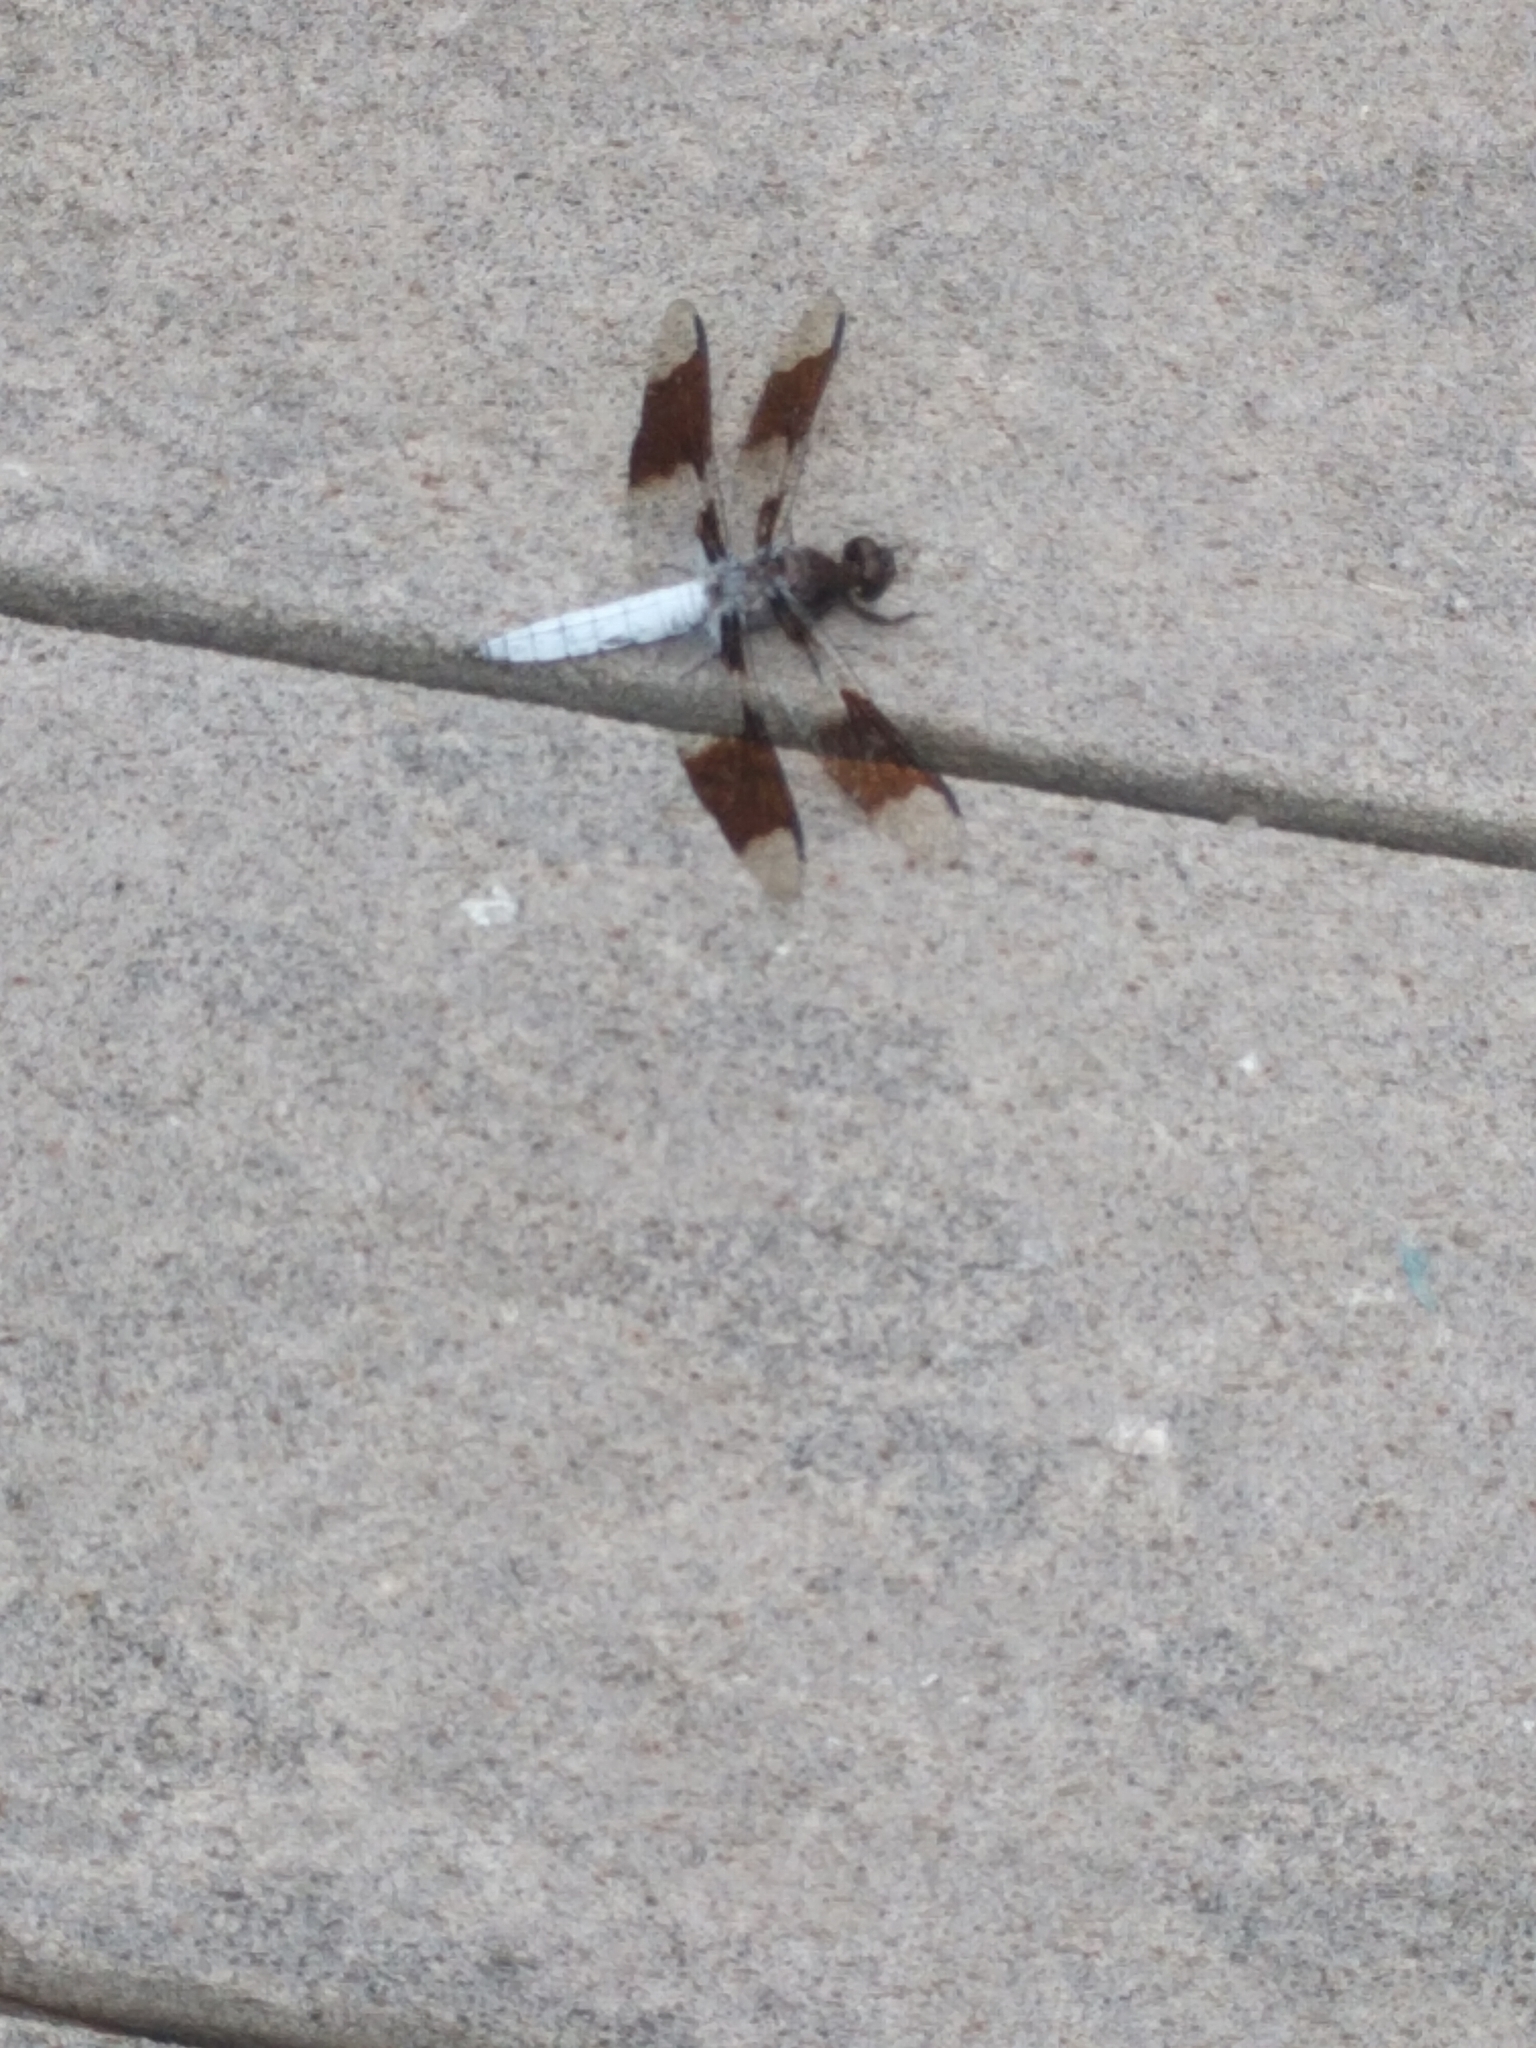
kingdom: Animalia
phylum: Arthropoda
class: Insecta
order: Odonata
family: Libellulidae
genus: Plathemis
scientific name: Plathemis lydia
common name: Common whitetail
